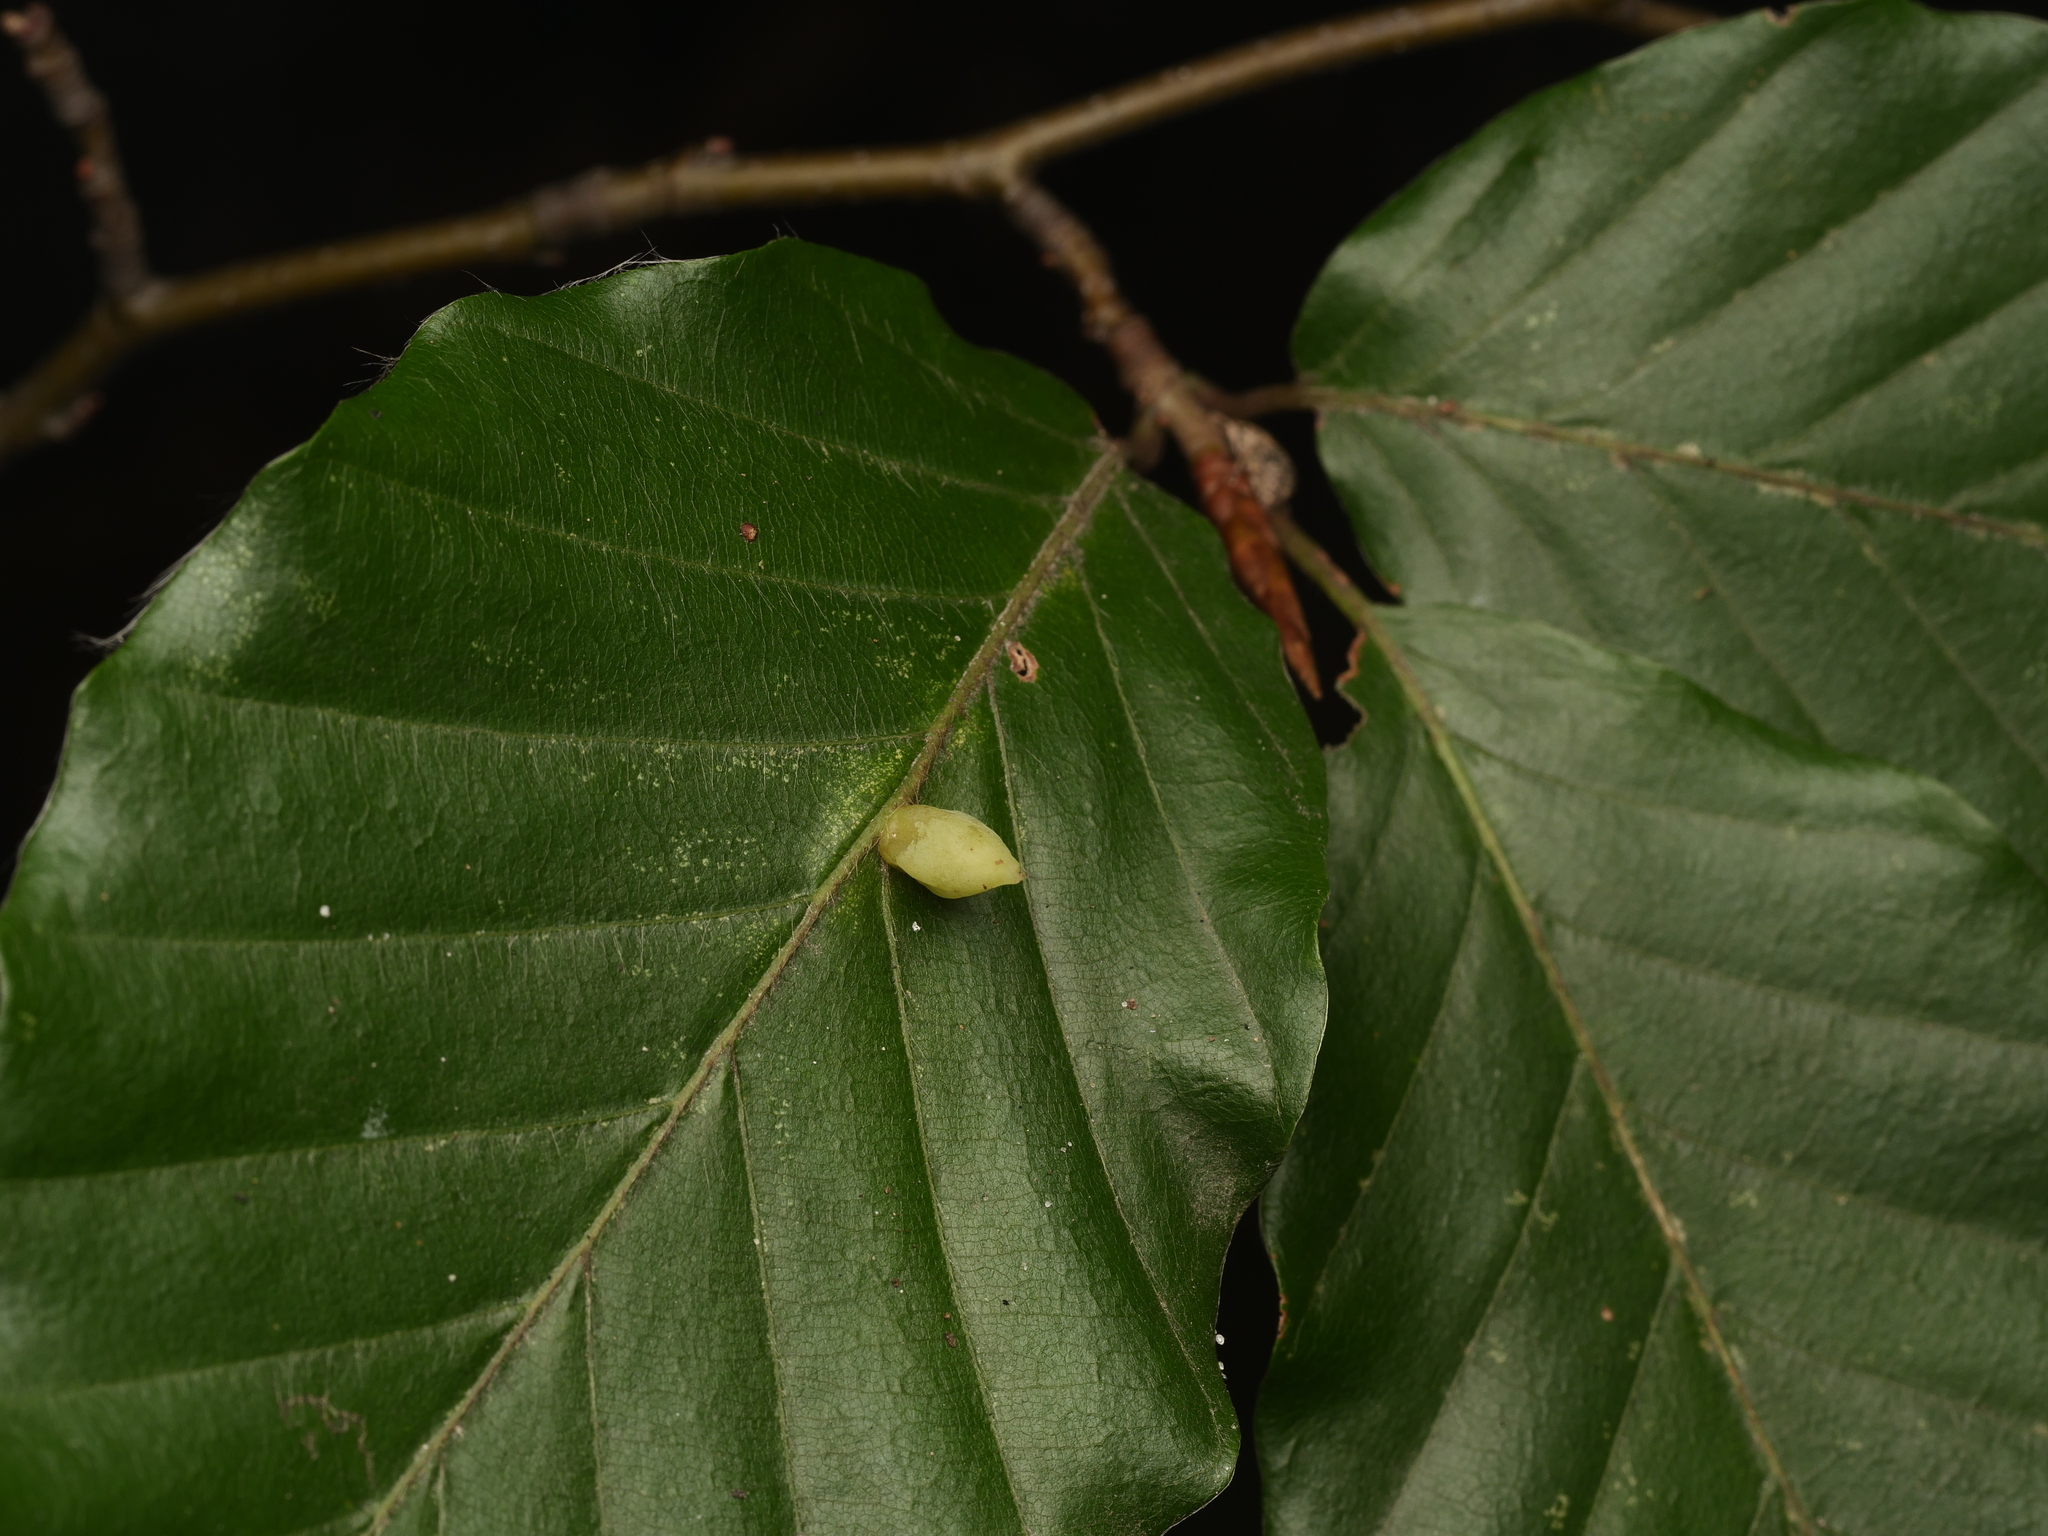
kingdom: Animalia
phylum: Arthropoda
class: Insecta
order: Diptera
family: Cecidomyiidae
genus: Mikiola
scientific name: Mikiola fagi
